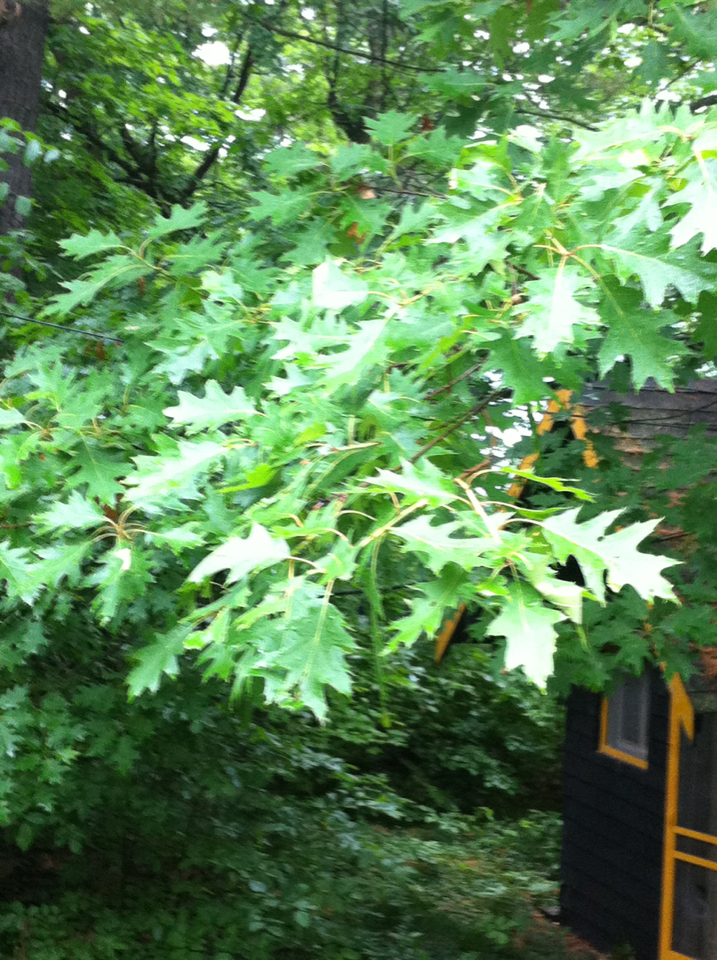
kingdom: Plantae
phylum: Tracheophyta
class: Magnoliopsida
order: Fagales
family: Fagaceae
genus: Quercus
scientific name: Quercus rubra
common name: Red oak
